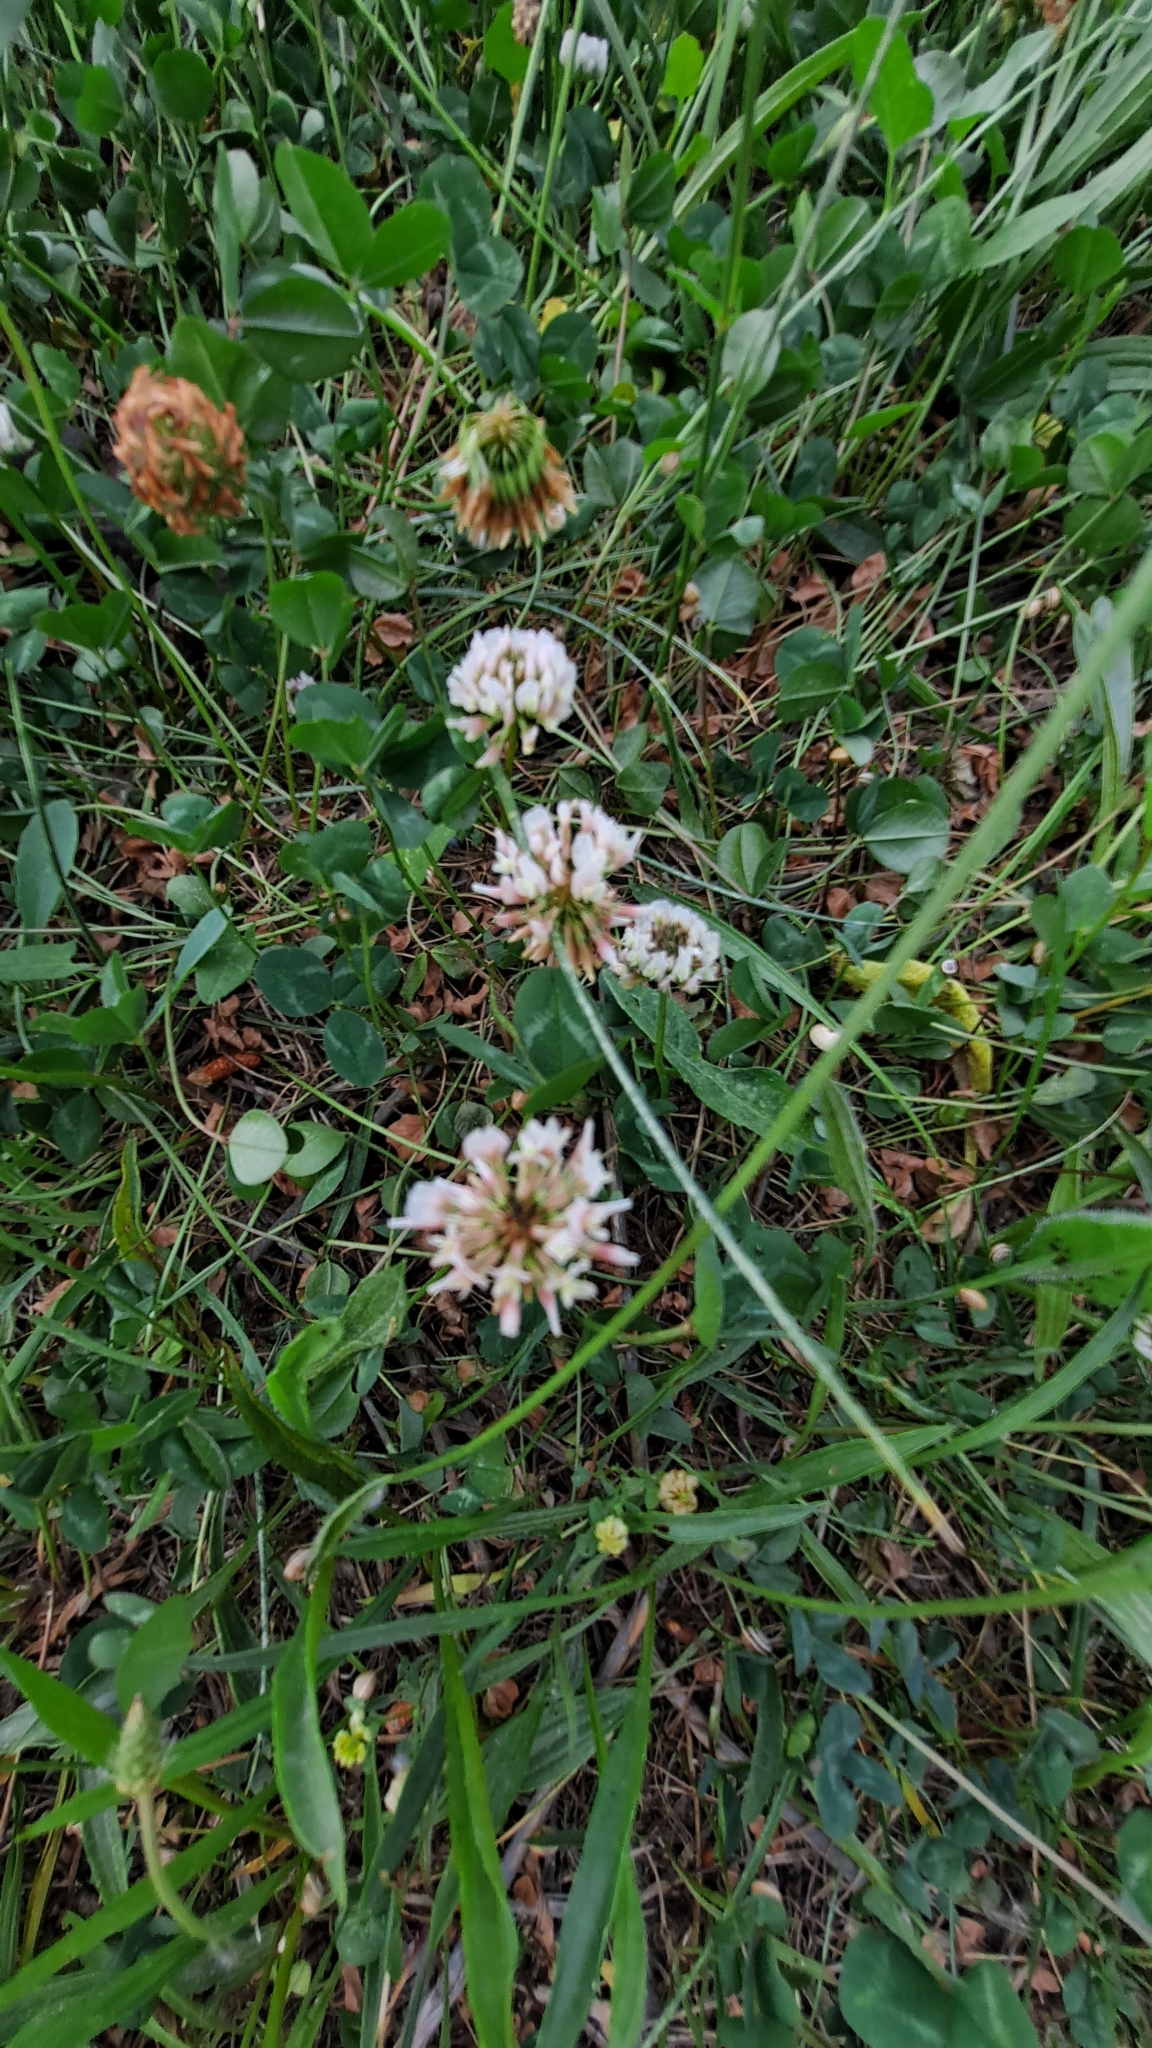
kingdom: Plantae
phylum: Tracheophyta
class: Magnoliopsida
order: Fabales
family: Fabaceae
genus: Trifolium
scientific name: Trifolium repens
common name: White clover
